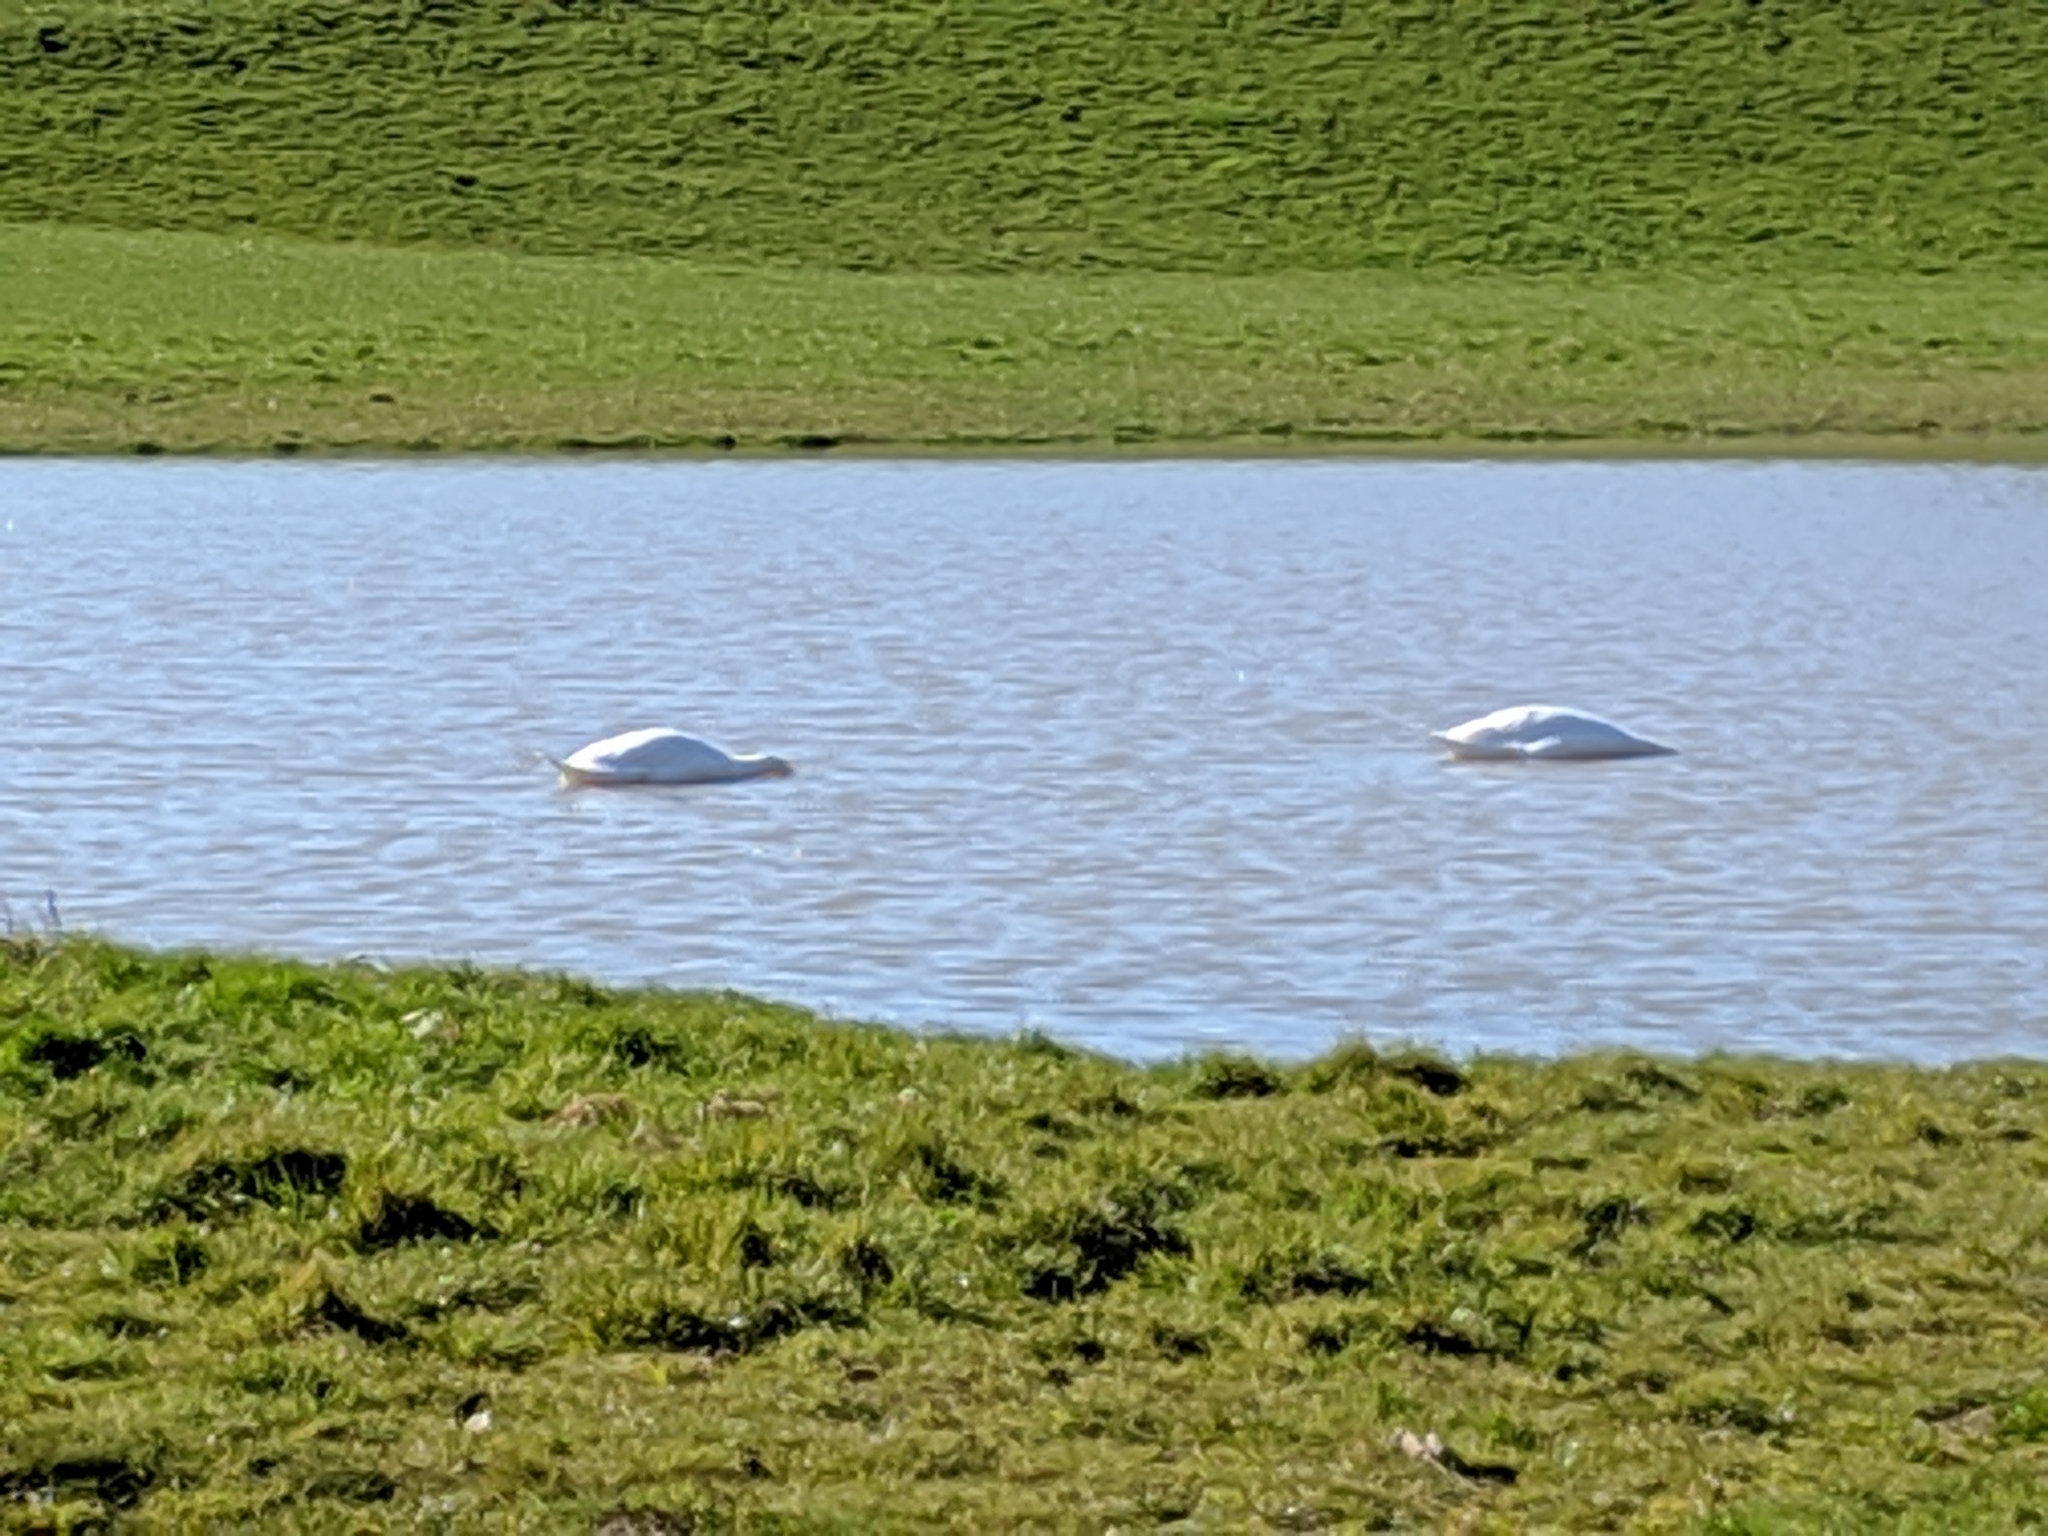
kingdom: Animalia
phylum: Chordata
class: Aves
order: Anseriformes
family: Anatidae
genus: Cygnus
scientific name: Cygnus olor
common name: Mute swan
